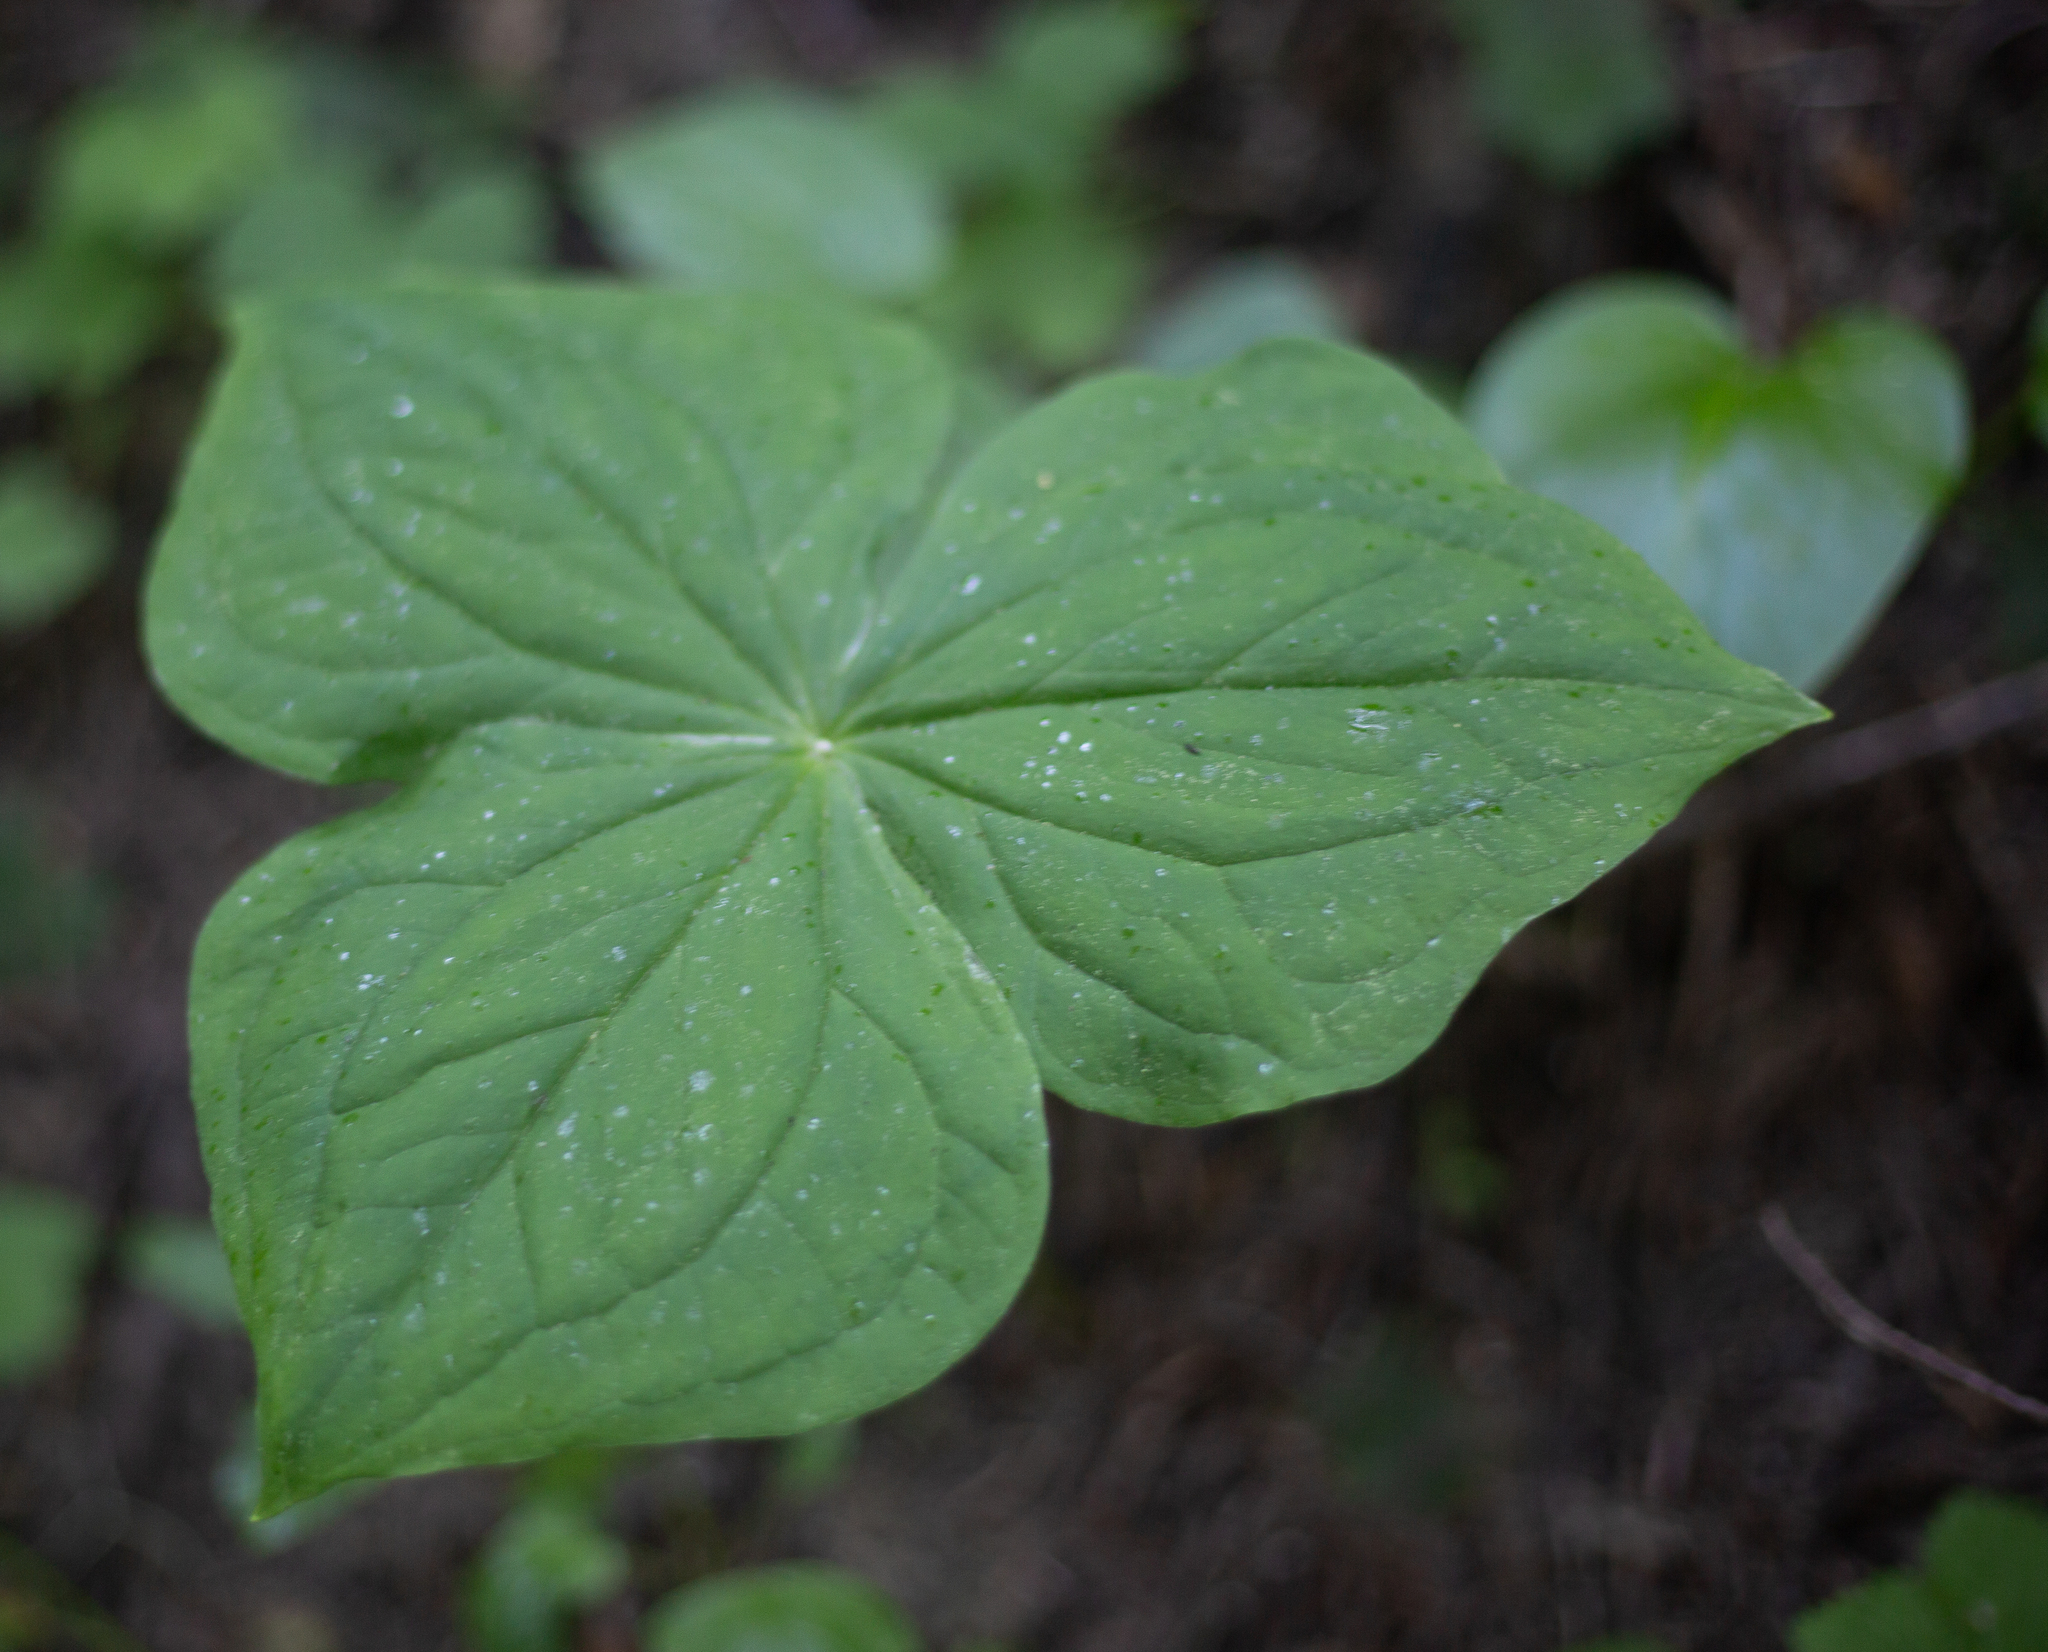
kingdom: Plantae
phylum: Tracheophyta
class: Liliopsida
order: Liliales
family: Melanthiaceae
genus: Trillium
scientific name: Trillium ovatum
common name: Pacific trillium
